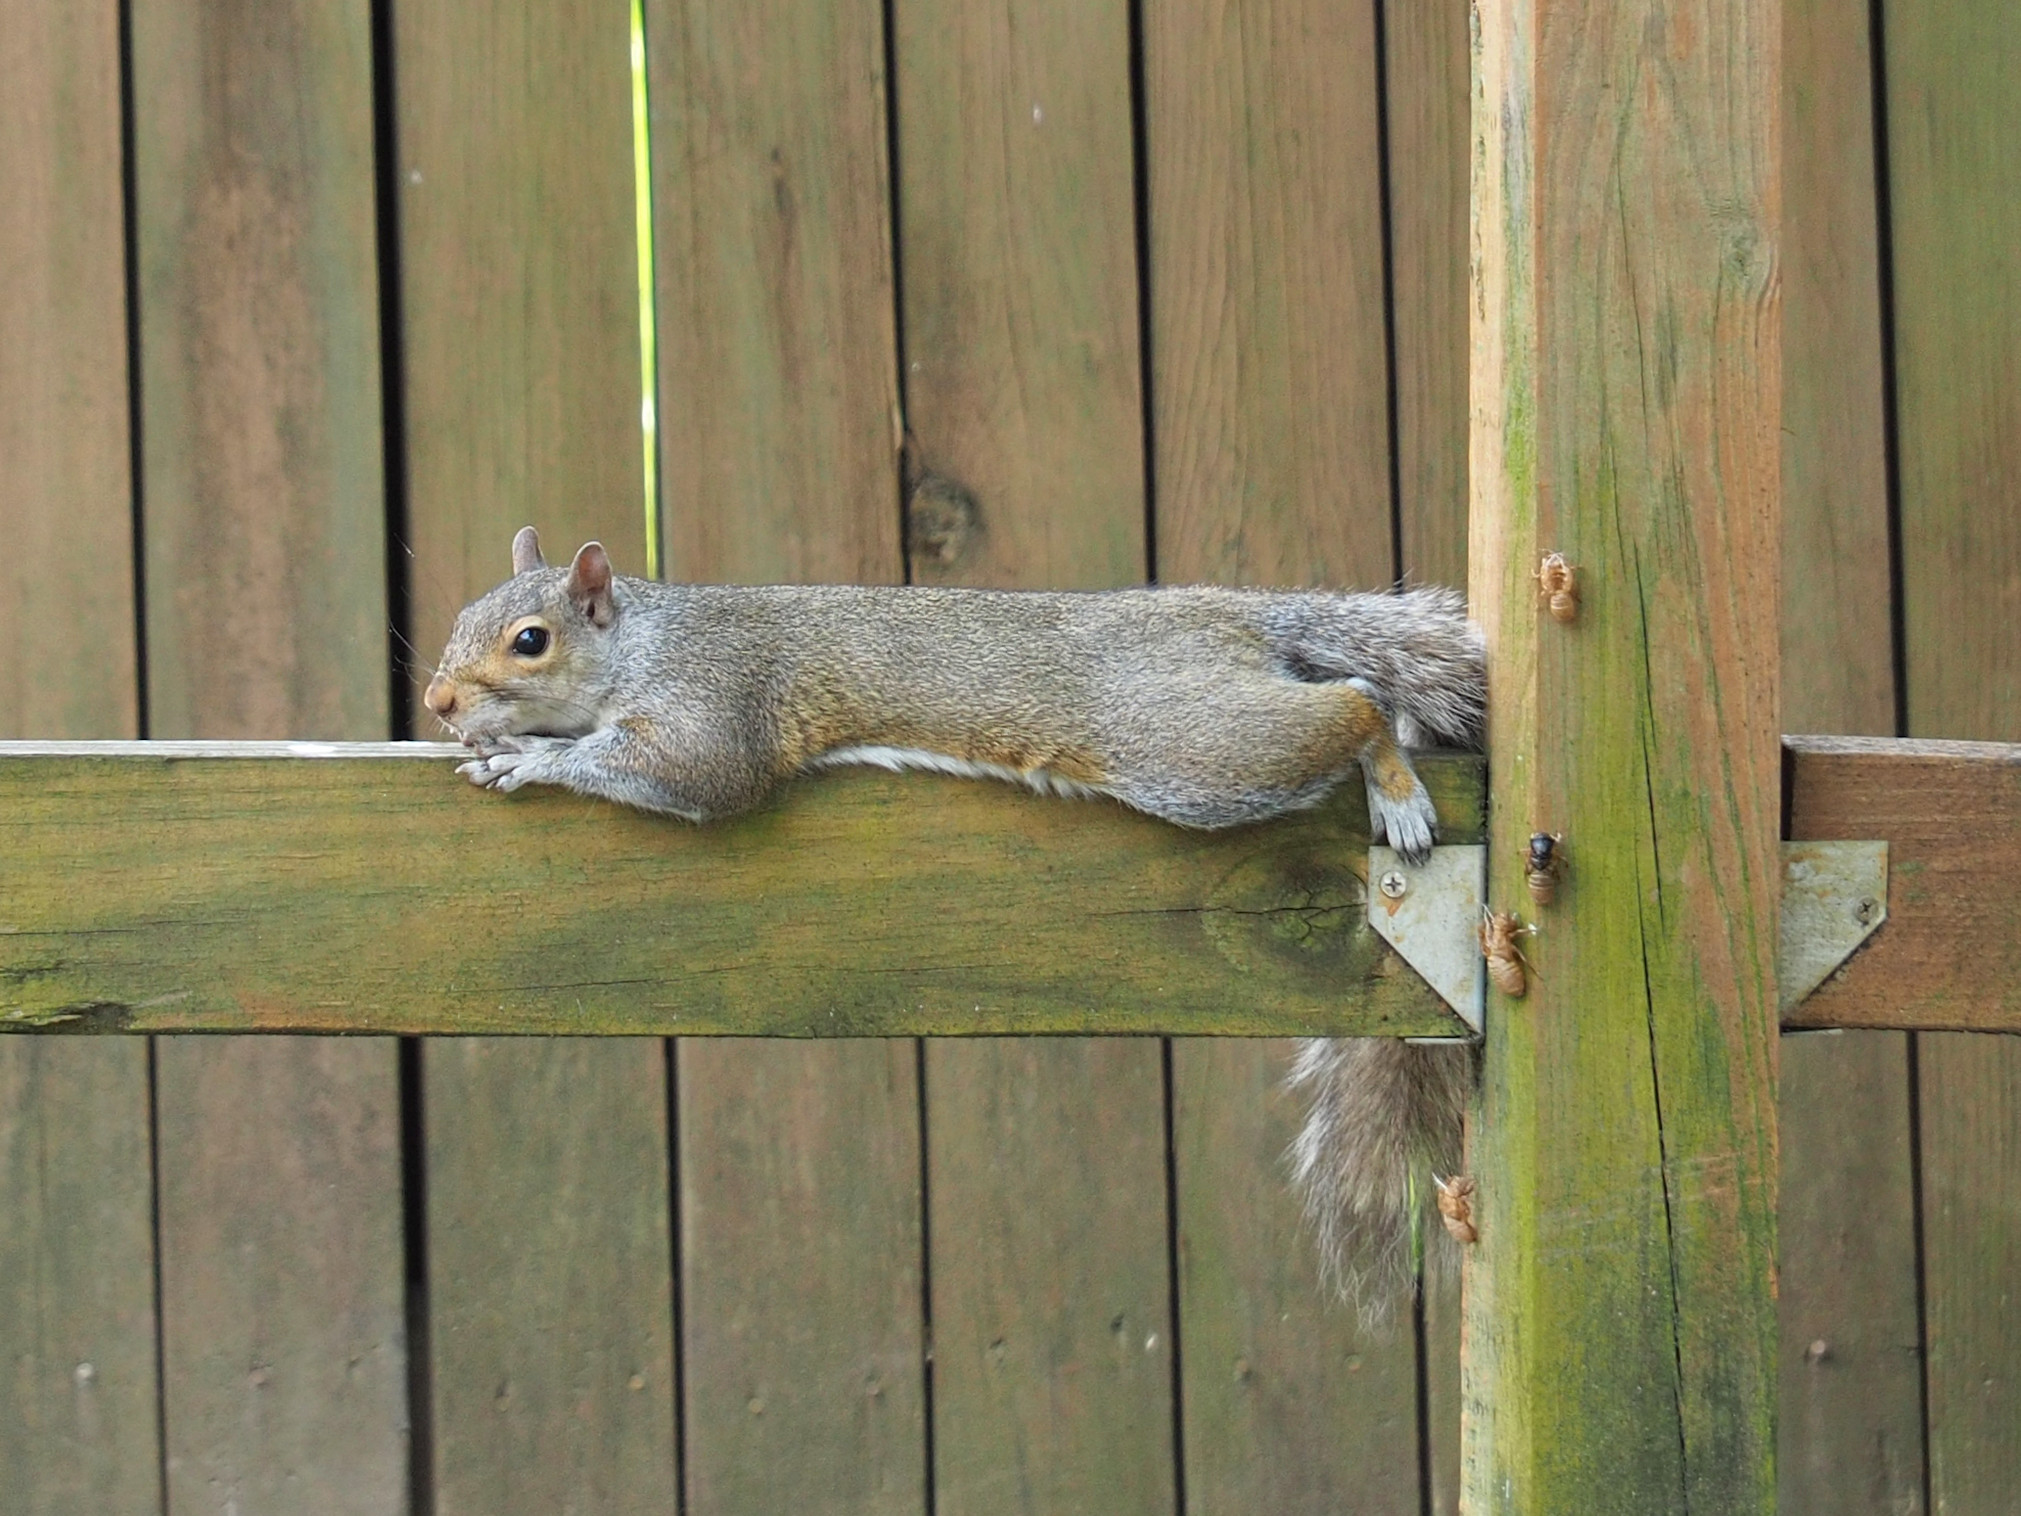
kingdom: Animalia
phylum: Chordata
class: Mammalia
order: Rodentia
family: Sciuridae
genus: Sciurus
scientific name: Sciurus carolinensis
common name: Eastern gray squirrel
